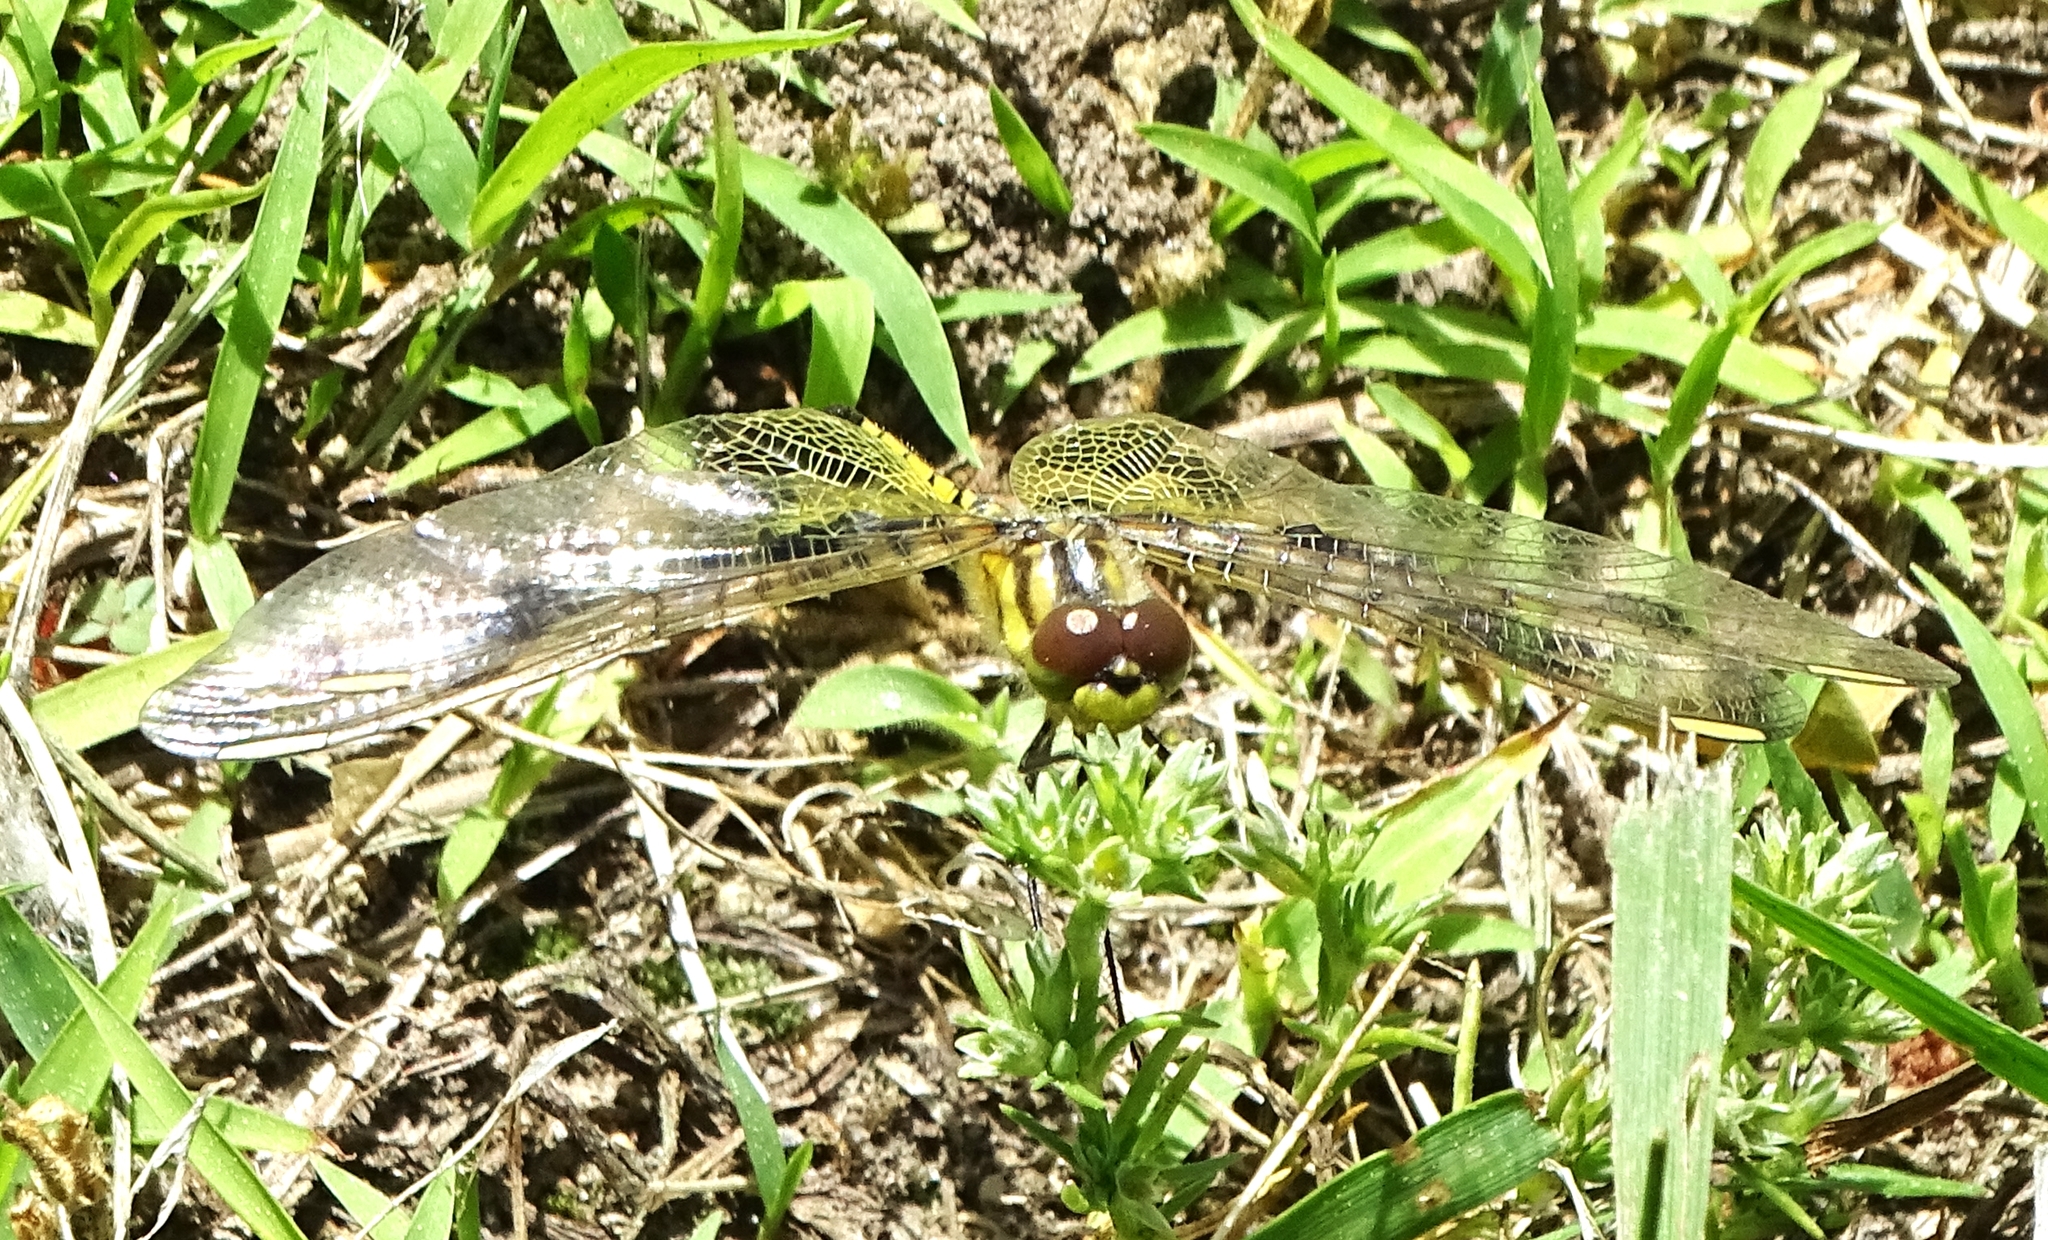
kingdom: Animalia
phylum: Arthropoda
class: Insecta
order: Odonata
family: Libellulidae
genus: Celithemis
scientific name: Celithemis elisa
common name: Calico pennant
